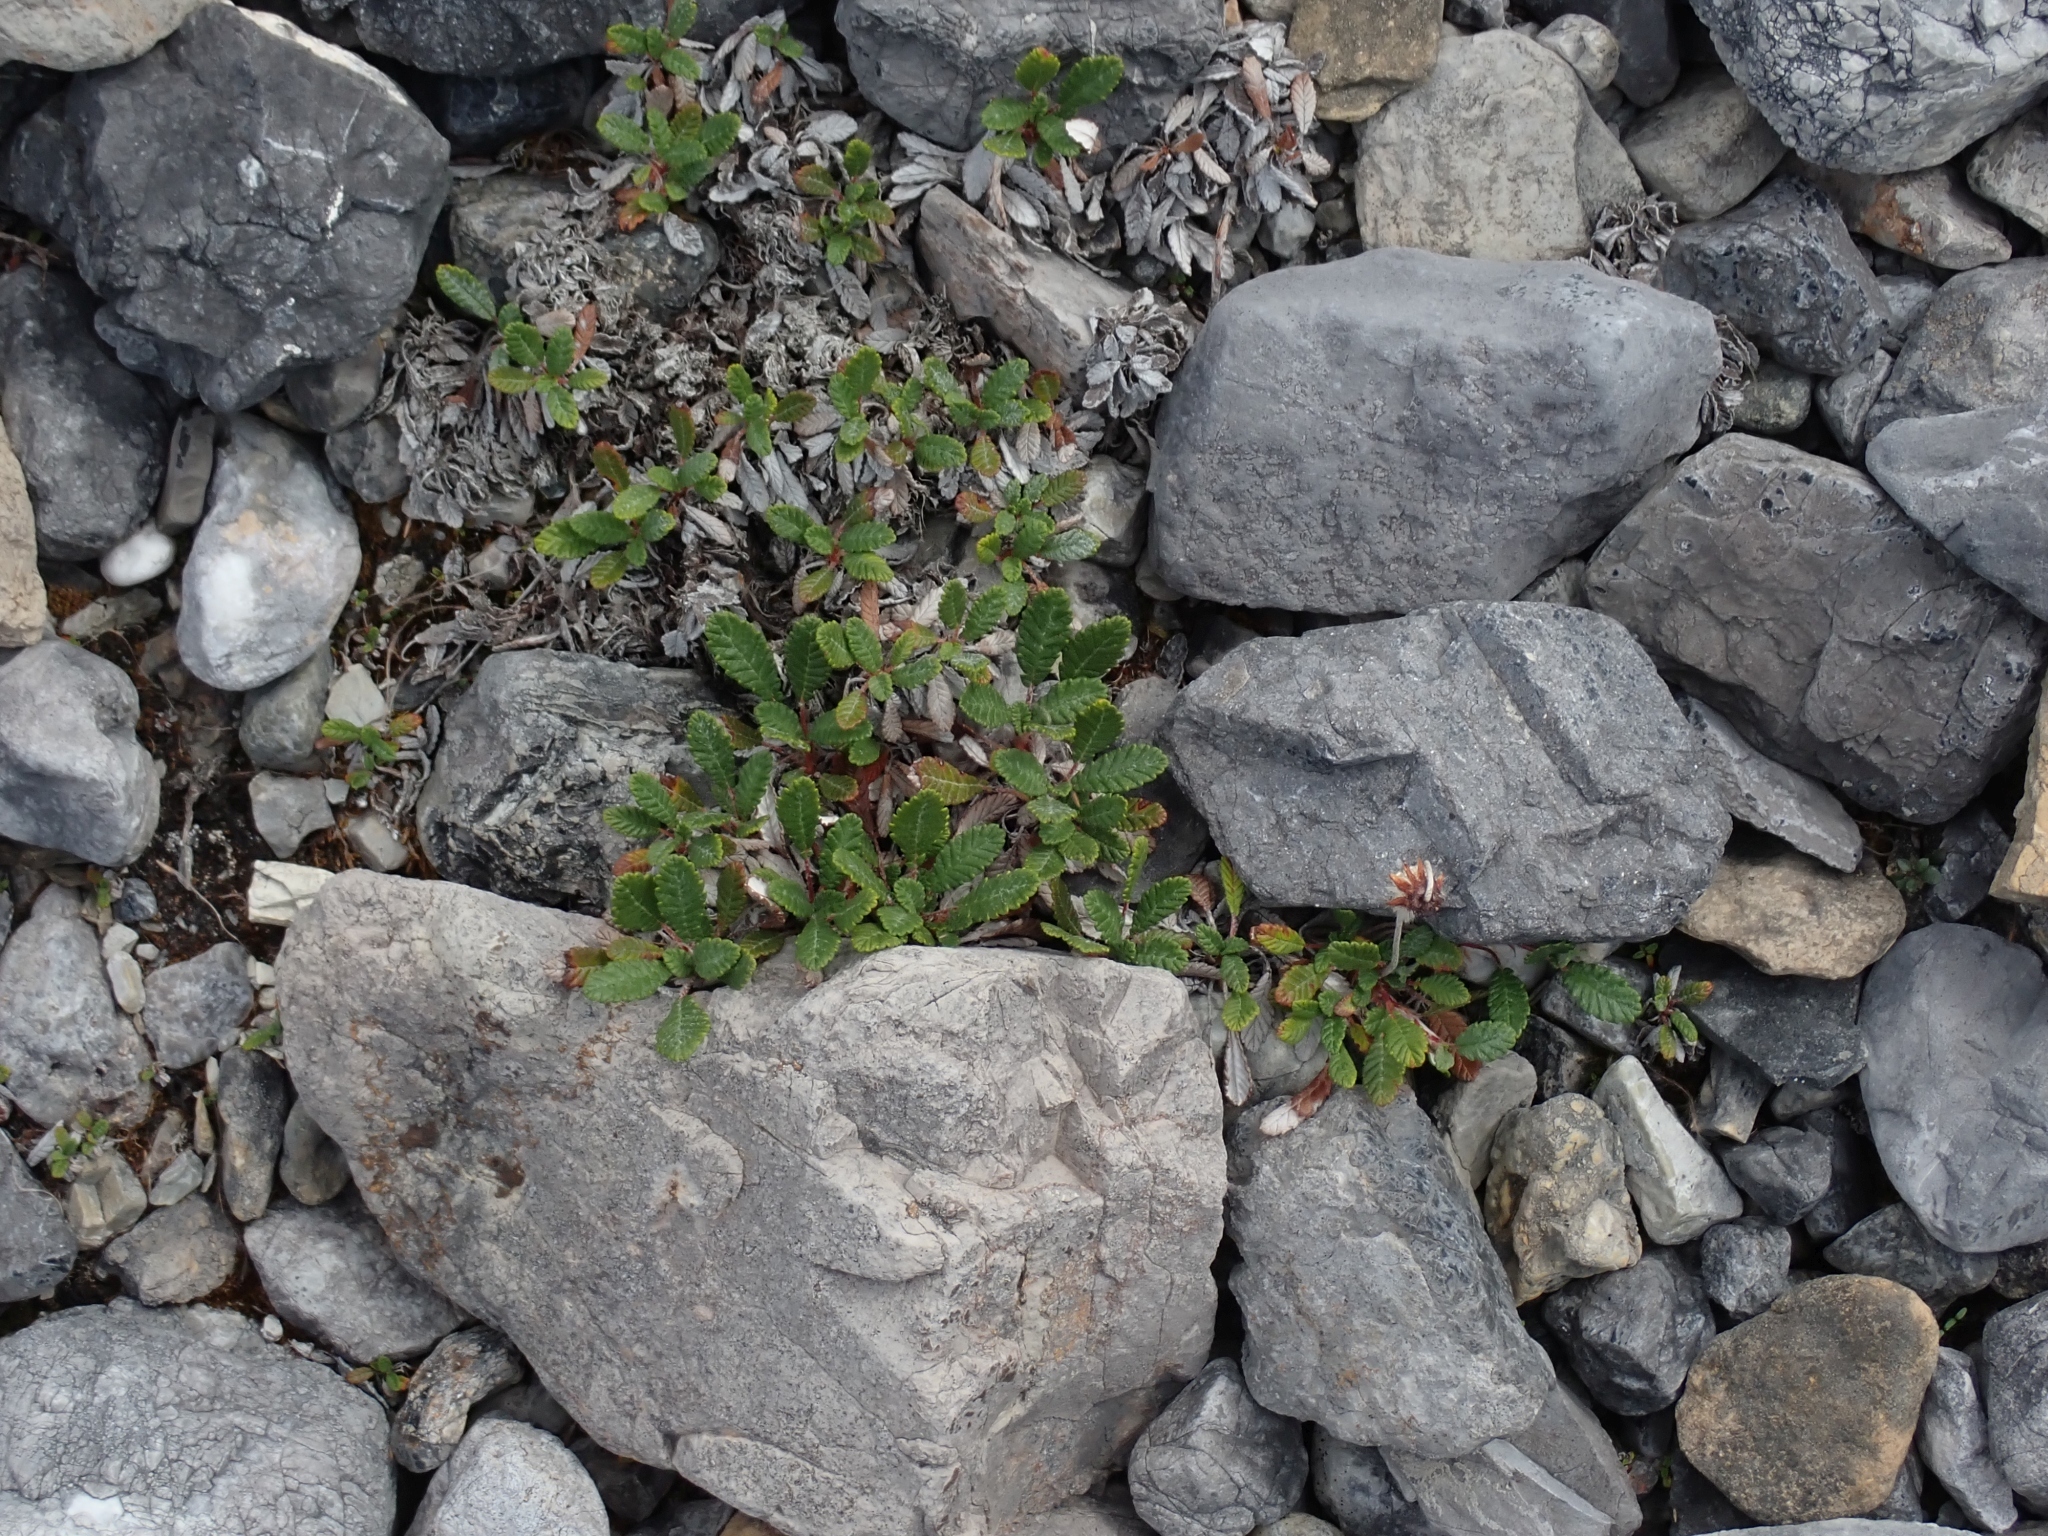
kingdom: Plantae
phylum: Tracheophyta
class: Magnoliopsida
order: Rosales
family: Rosaceae
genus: Dryas
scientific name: Dryas drummondii
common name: Drummond's dryad
